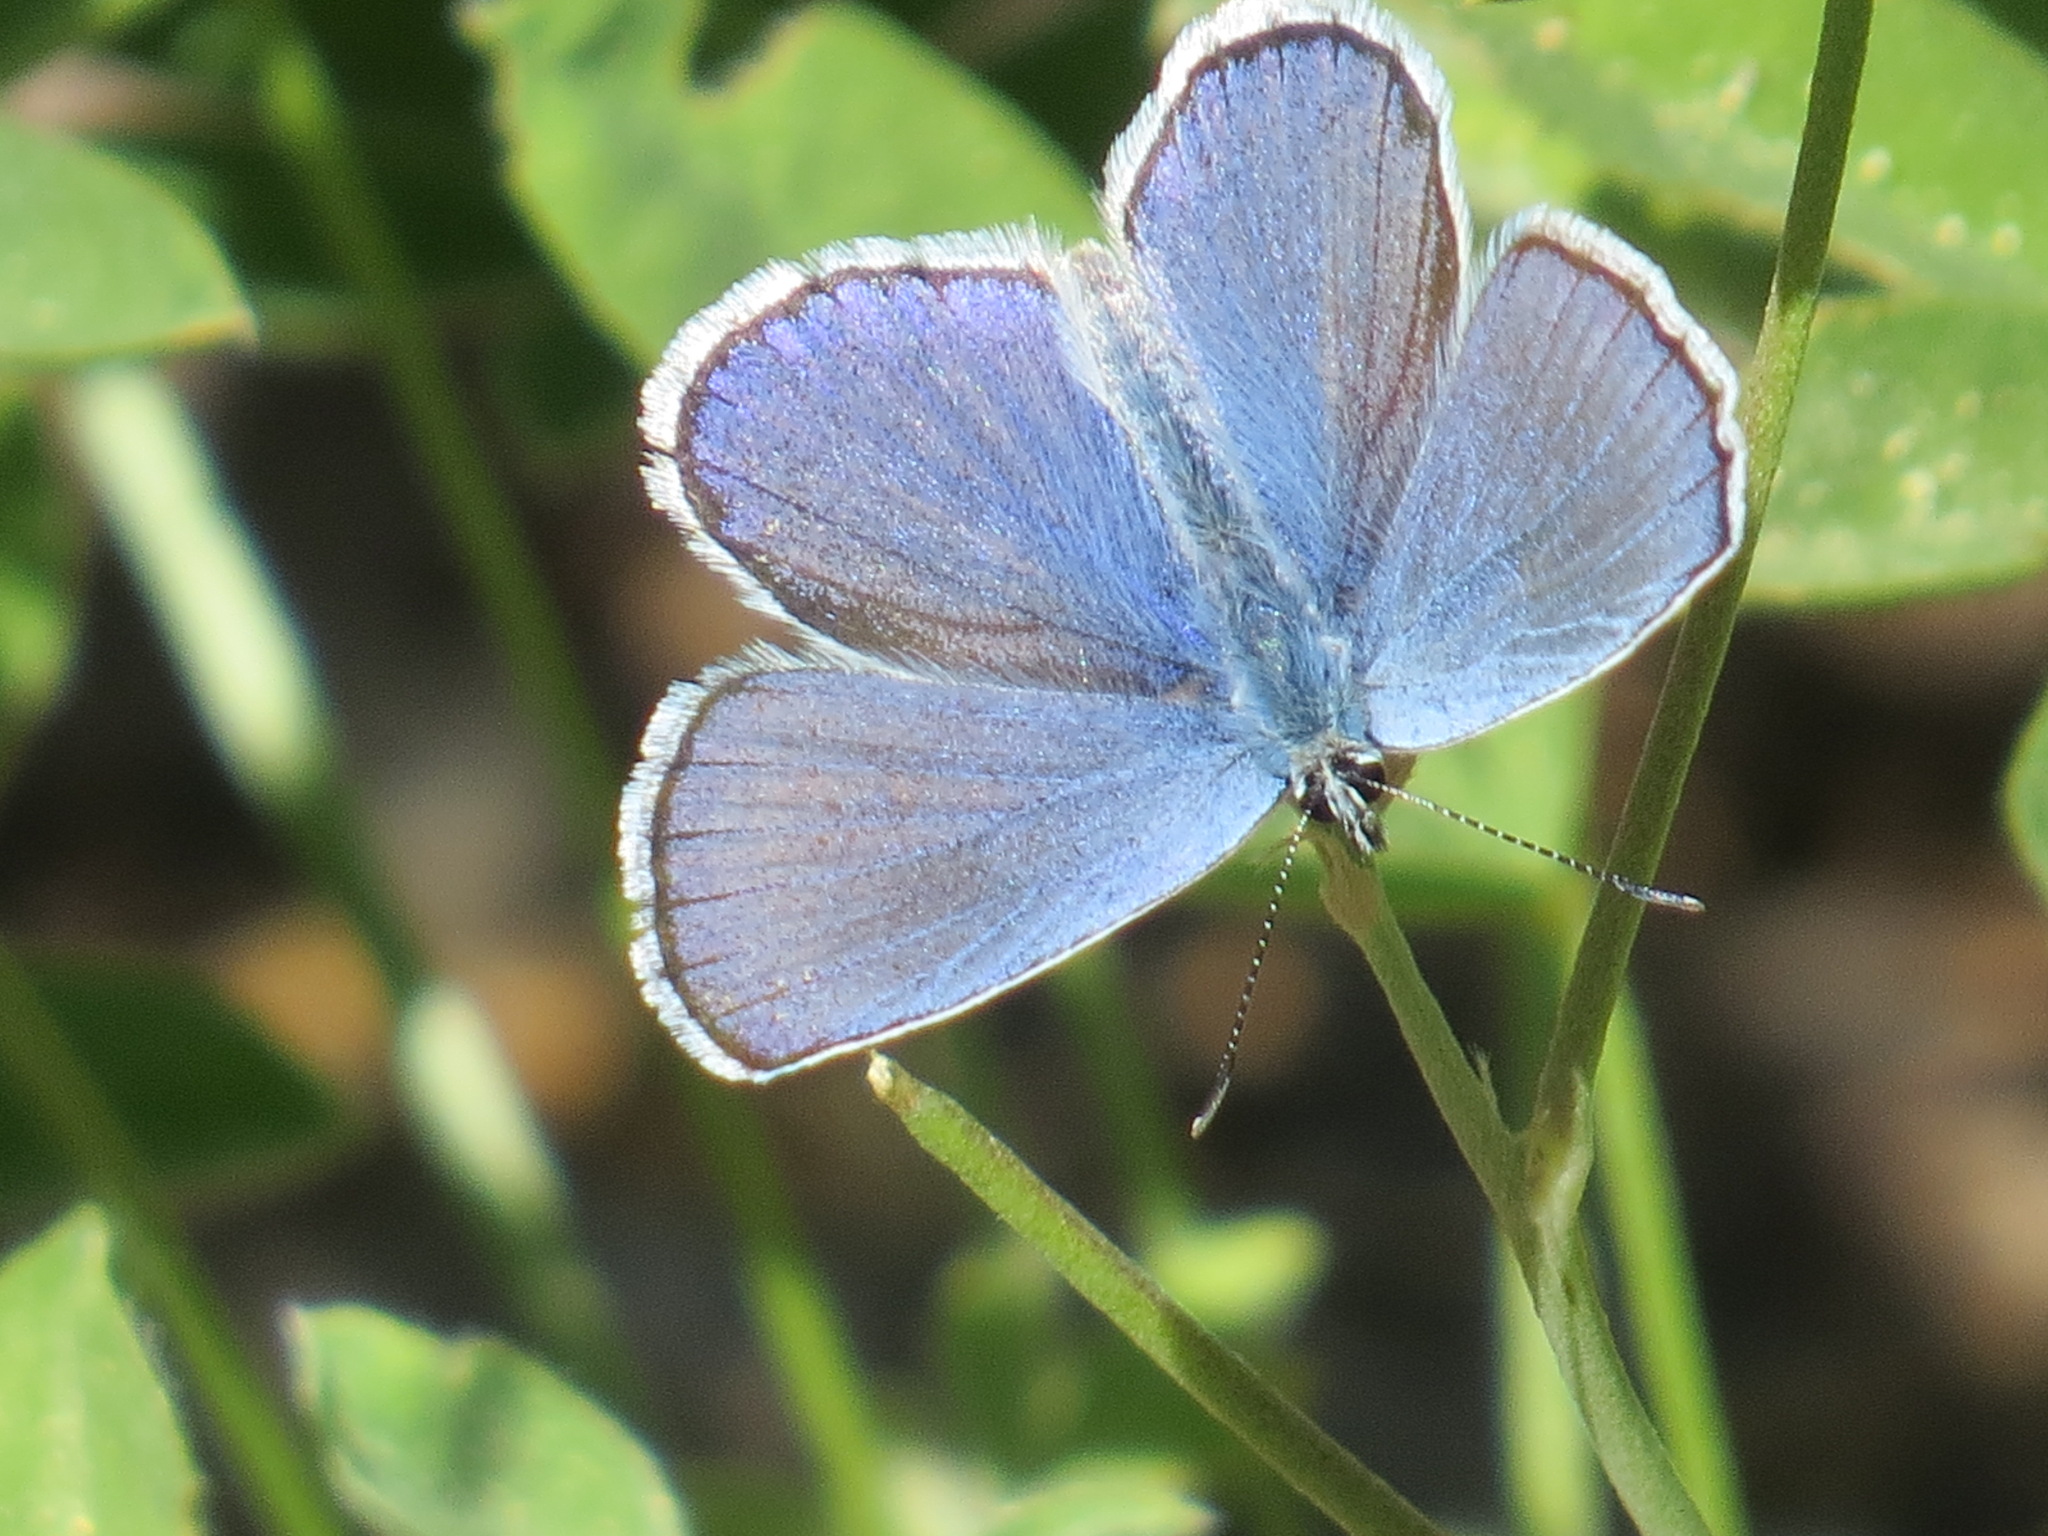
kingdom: Animalia
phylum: Arthropoda
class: Insecta
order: Lepidoptera
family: Lycaenidae
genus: Lycaeides
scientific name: Lycaeides anna
